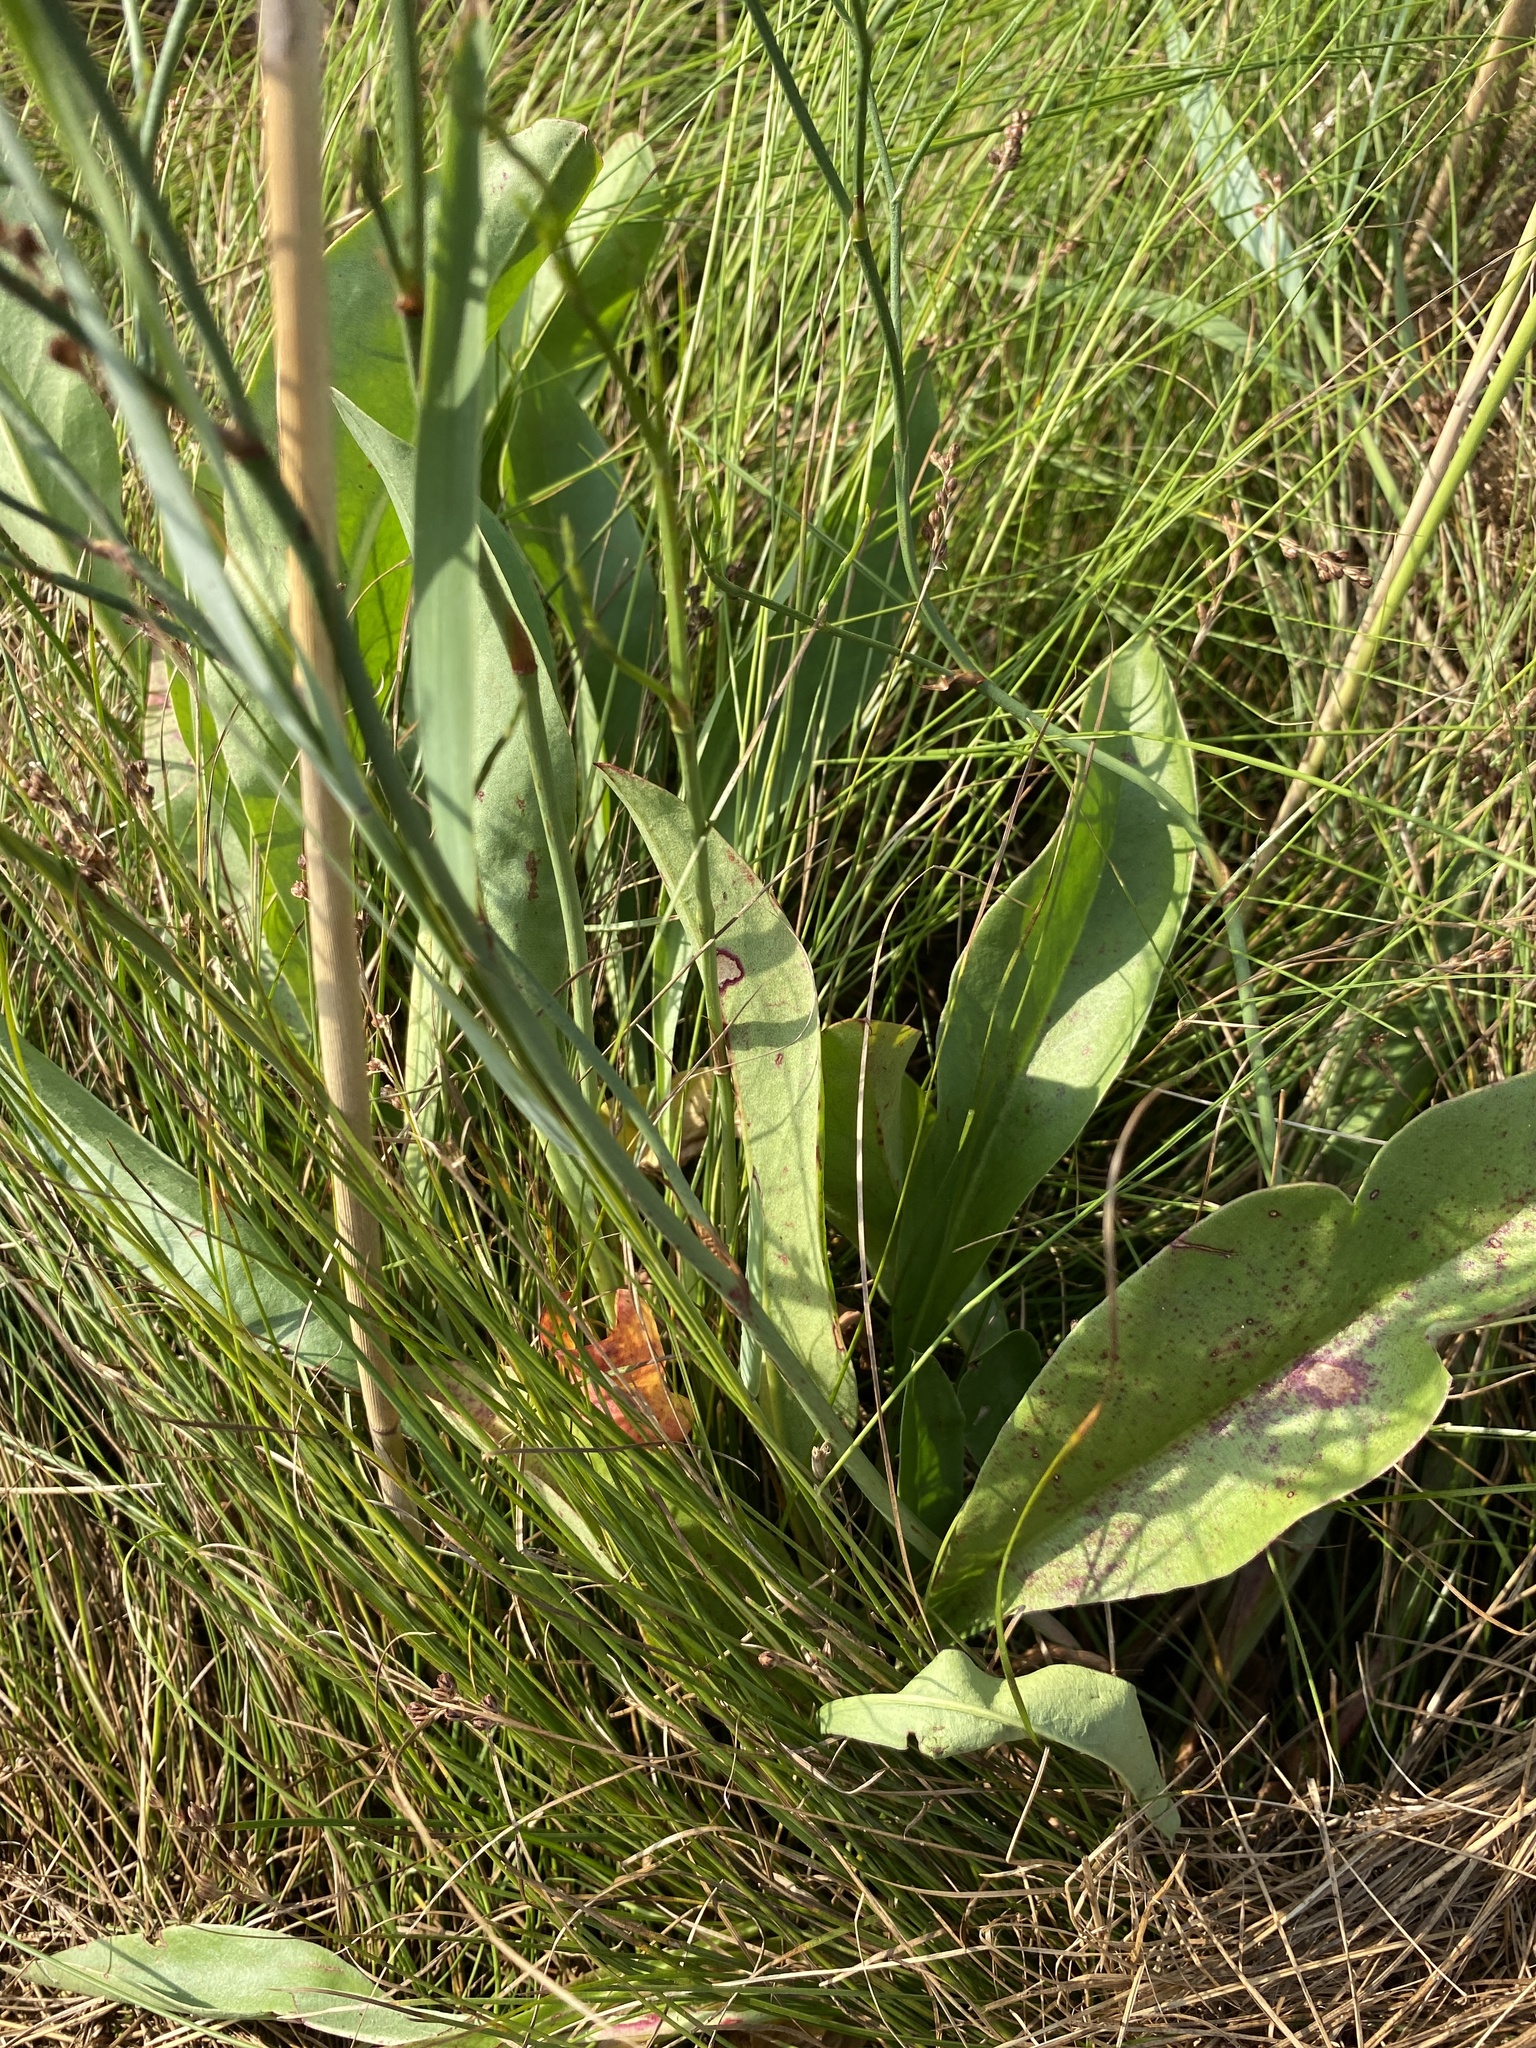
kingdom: Plantae
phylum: Tracheophyta
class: Magnoliopsida
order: Caryophyllales
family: Plumbaginaceae
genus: Limonium
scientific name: Limonium carolinianum
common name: Carolina sea lavender
